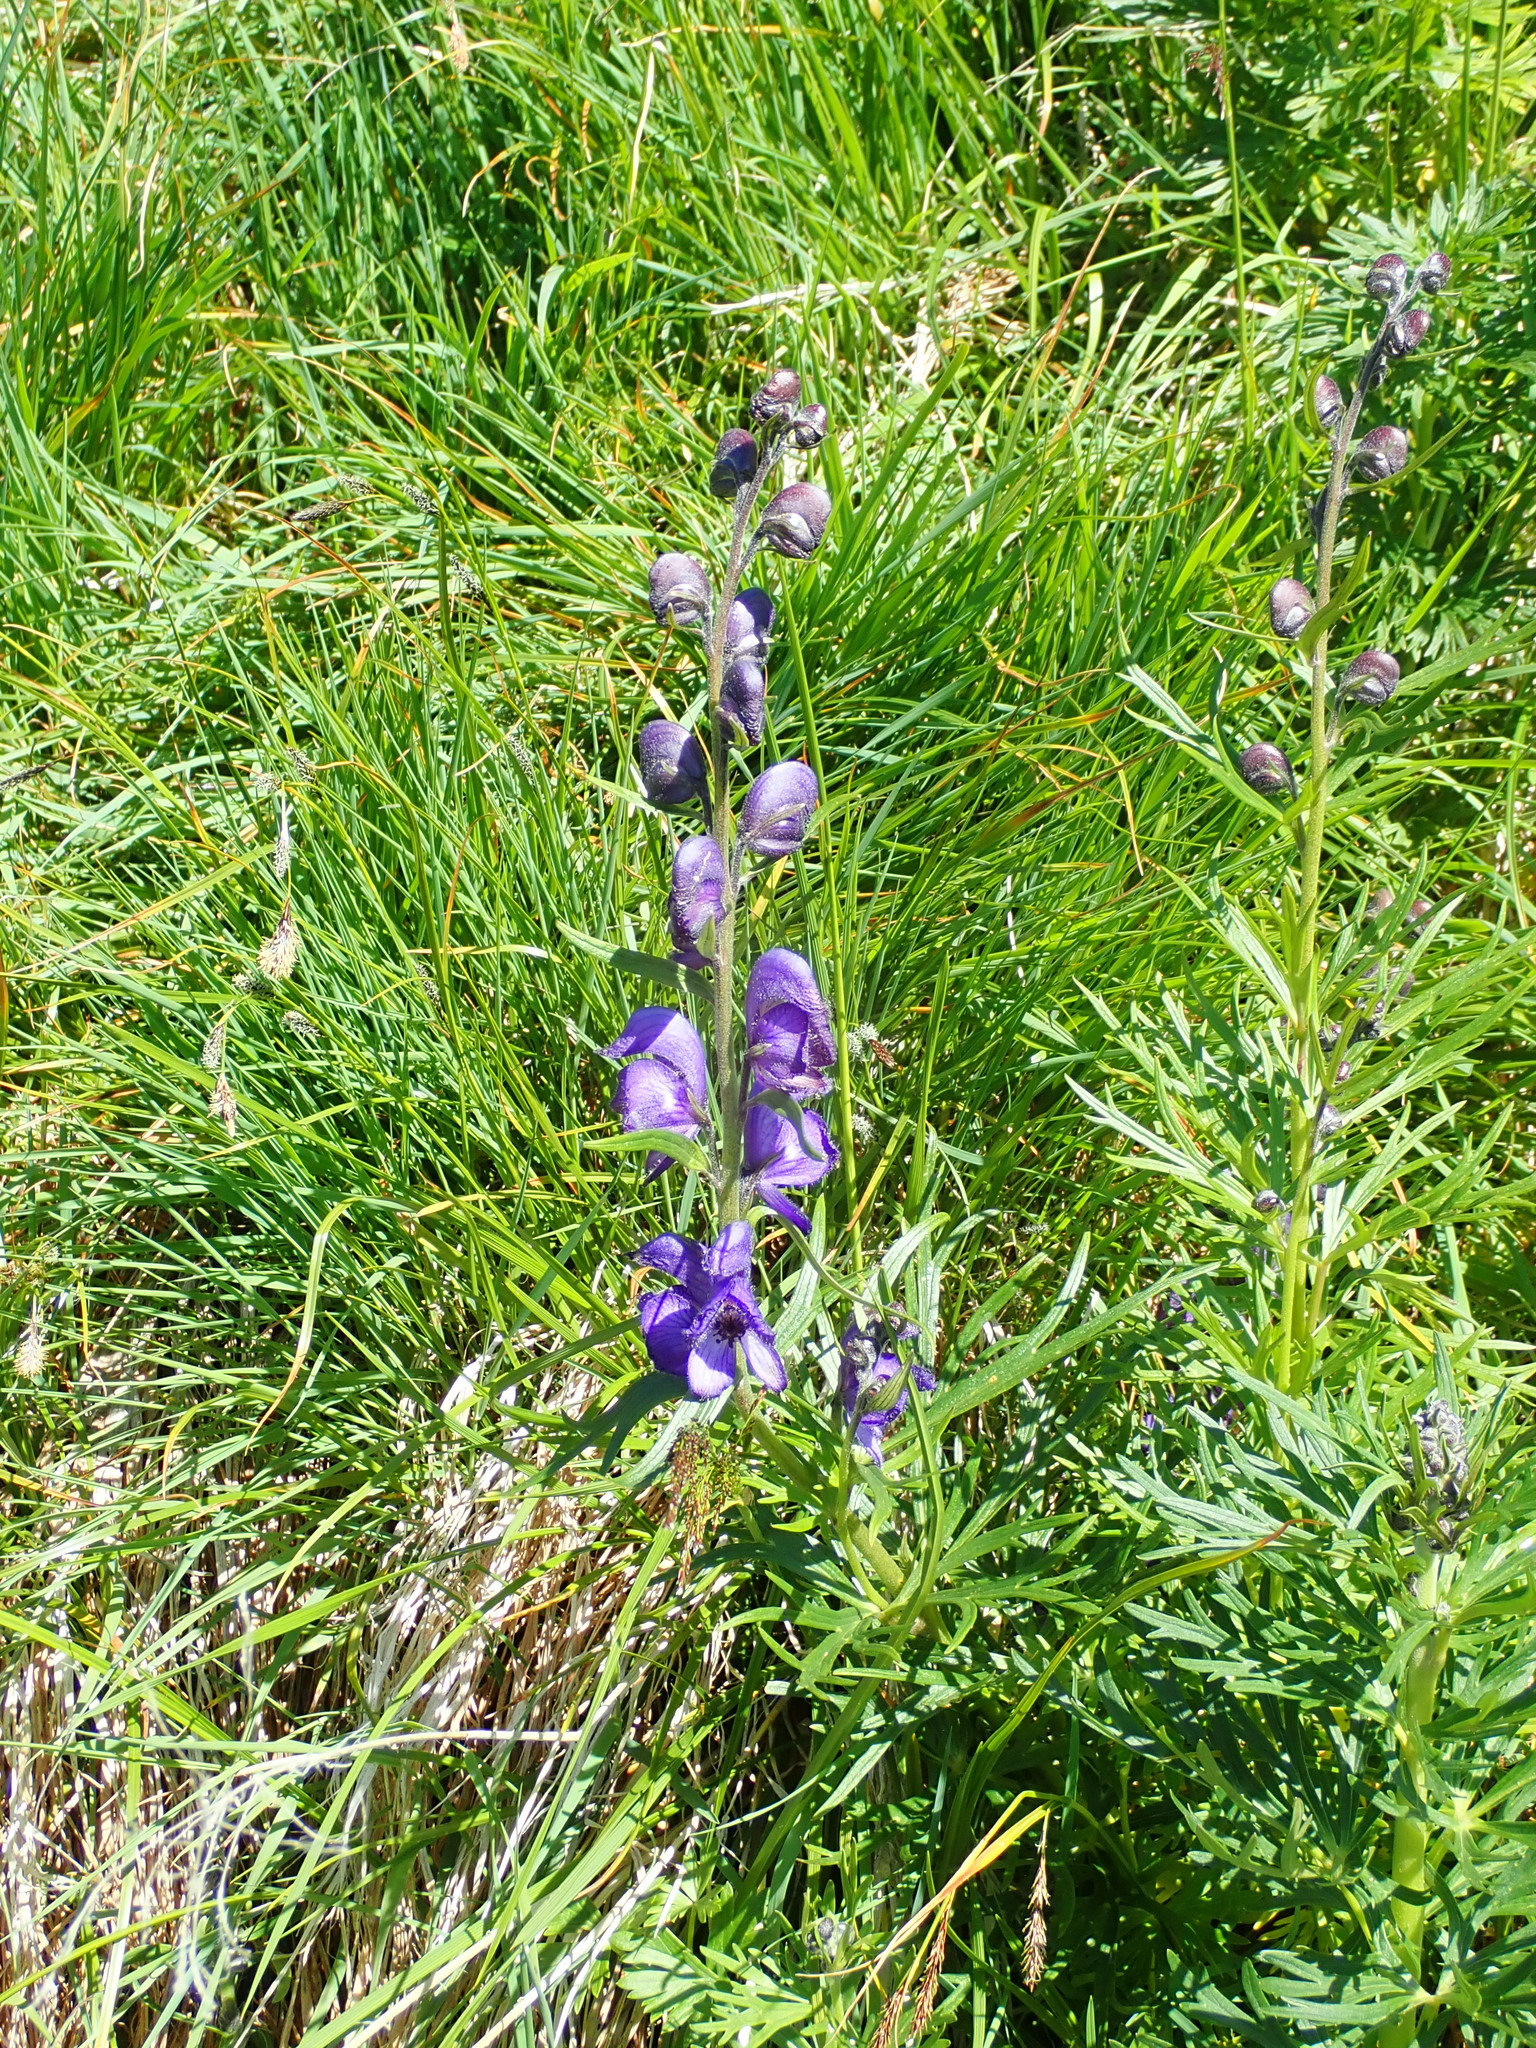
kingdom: Plantae
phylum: Tracheophyta
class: Magnoliopsida
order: Ranunculales
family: Ranunculaceae
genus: Aconitum
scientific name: Aconitum napellus
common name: Garden monkshood
